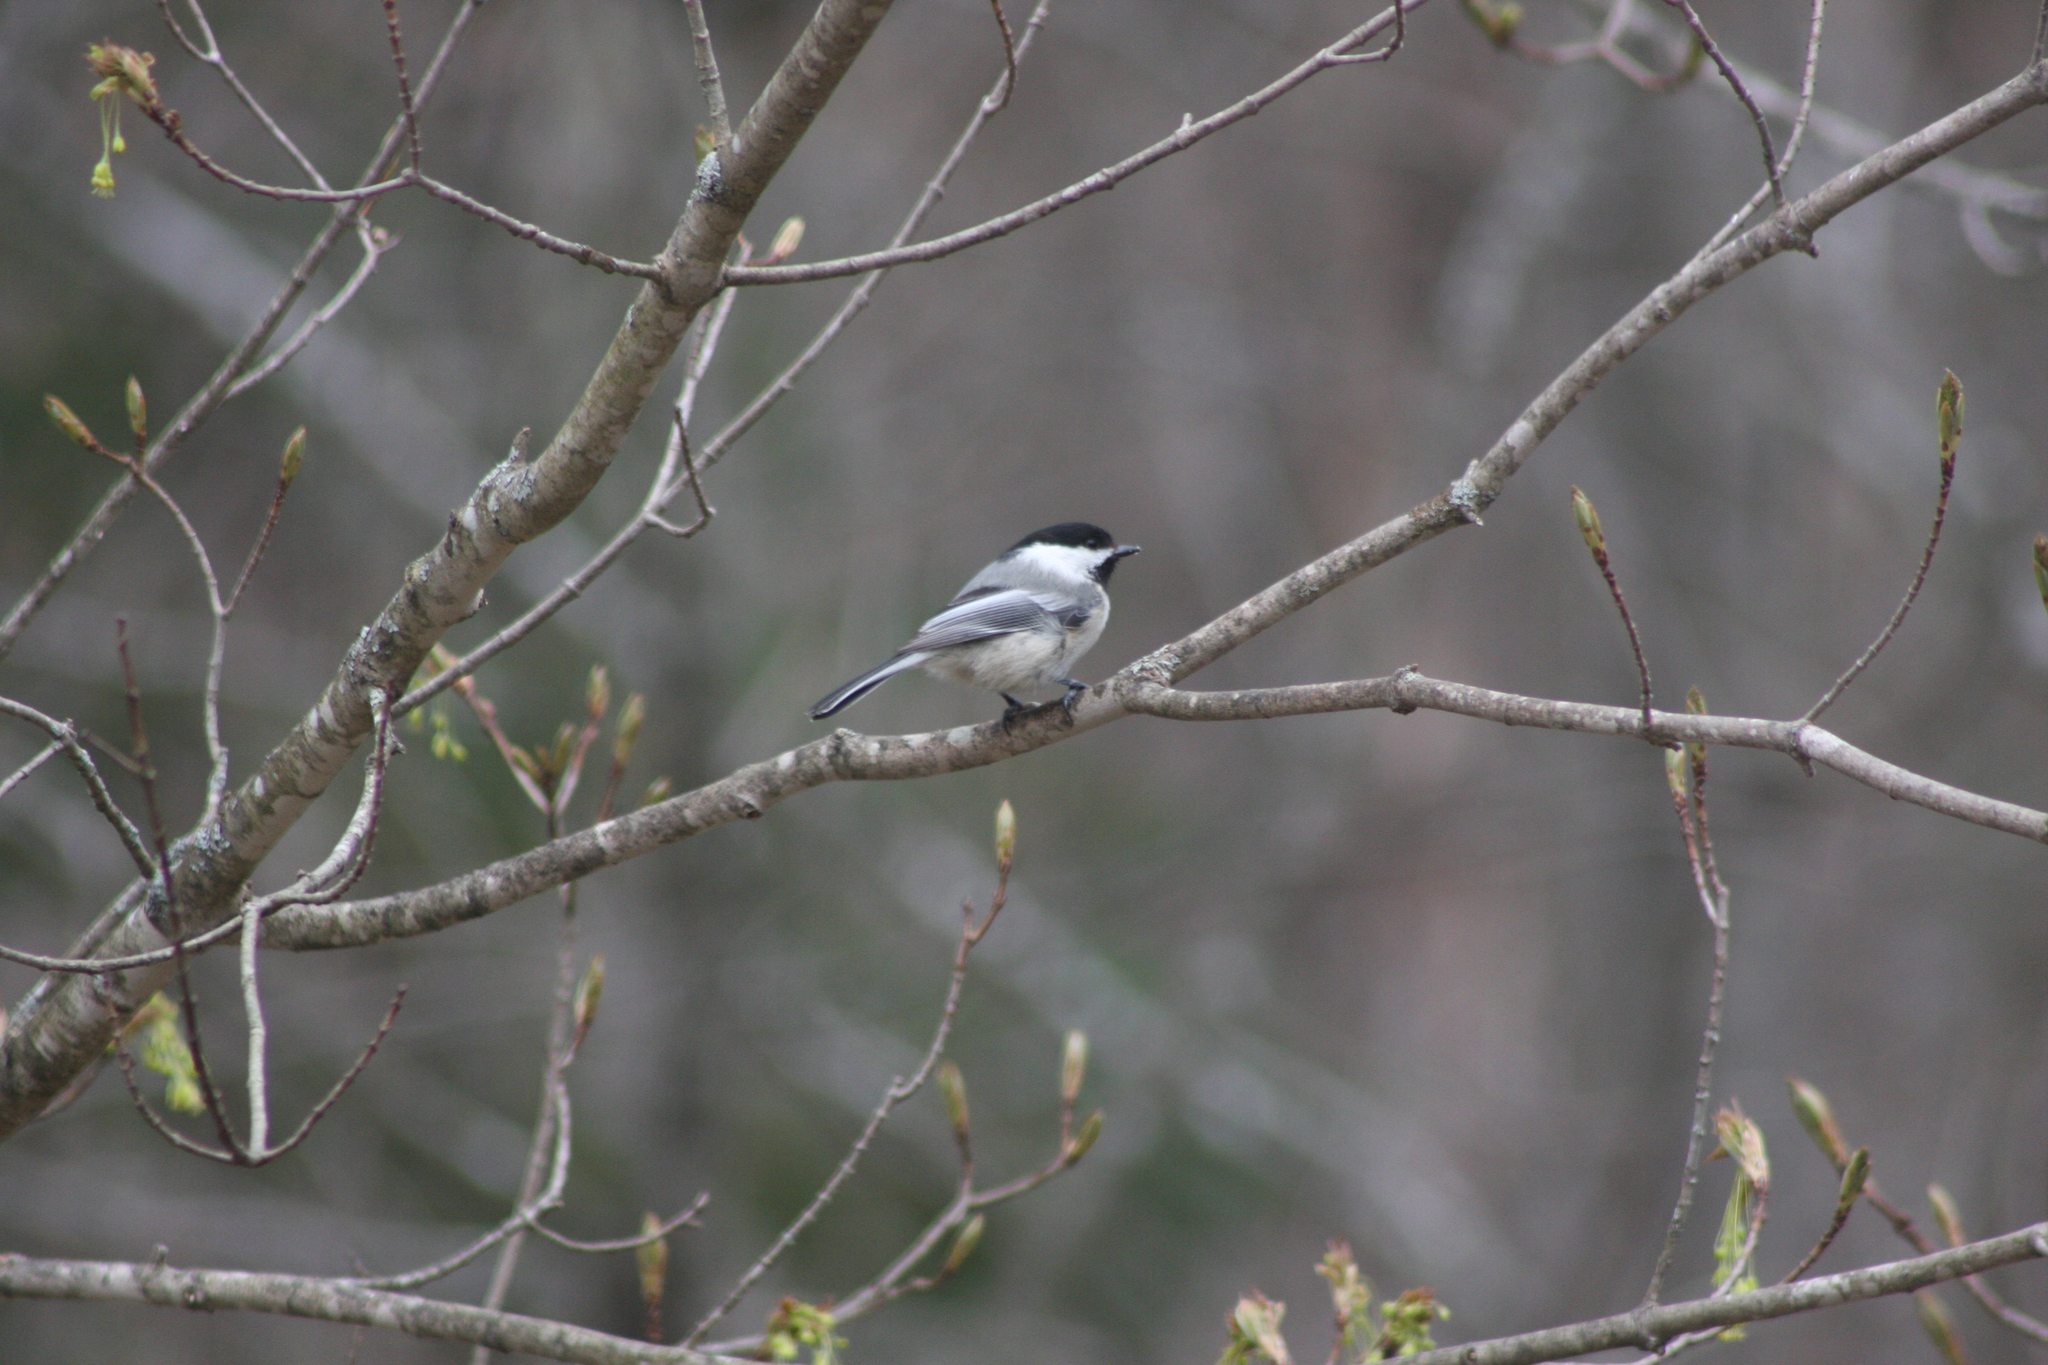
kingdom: Animalia
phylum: Chordata
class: Aves
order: Passeriformes
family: Paridae
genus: Poecile
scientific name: Poecile atricapillus
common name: Black-capped chickadee
